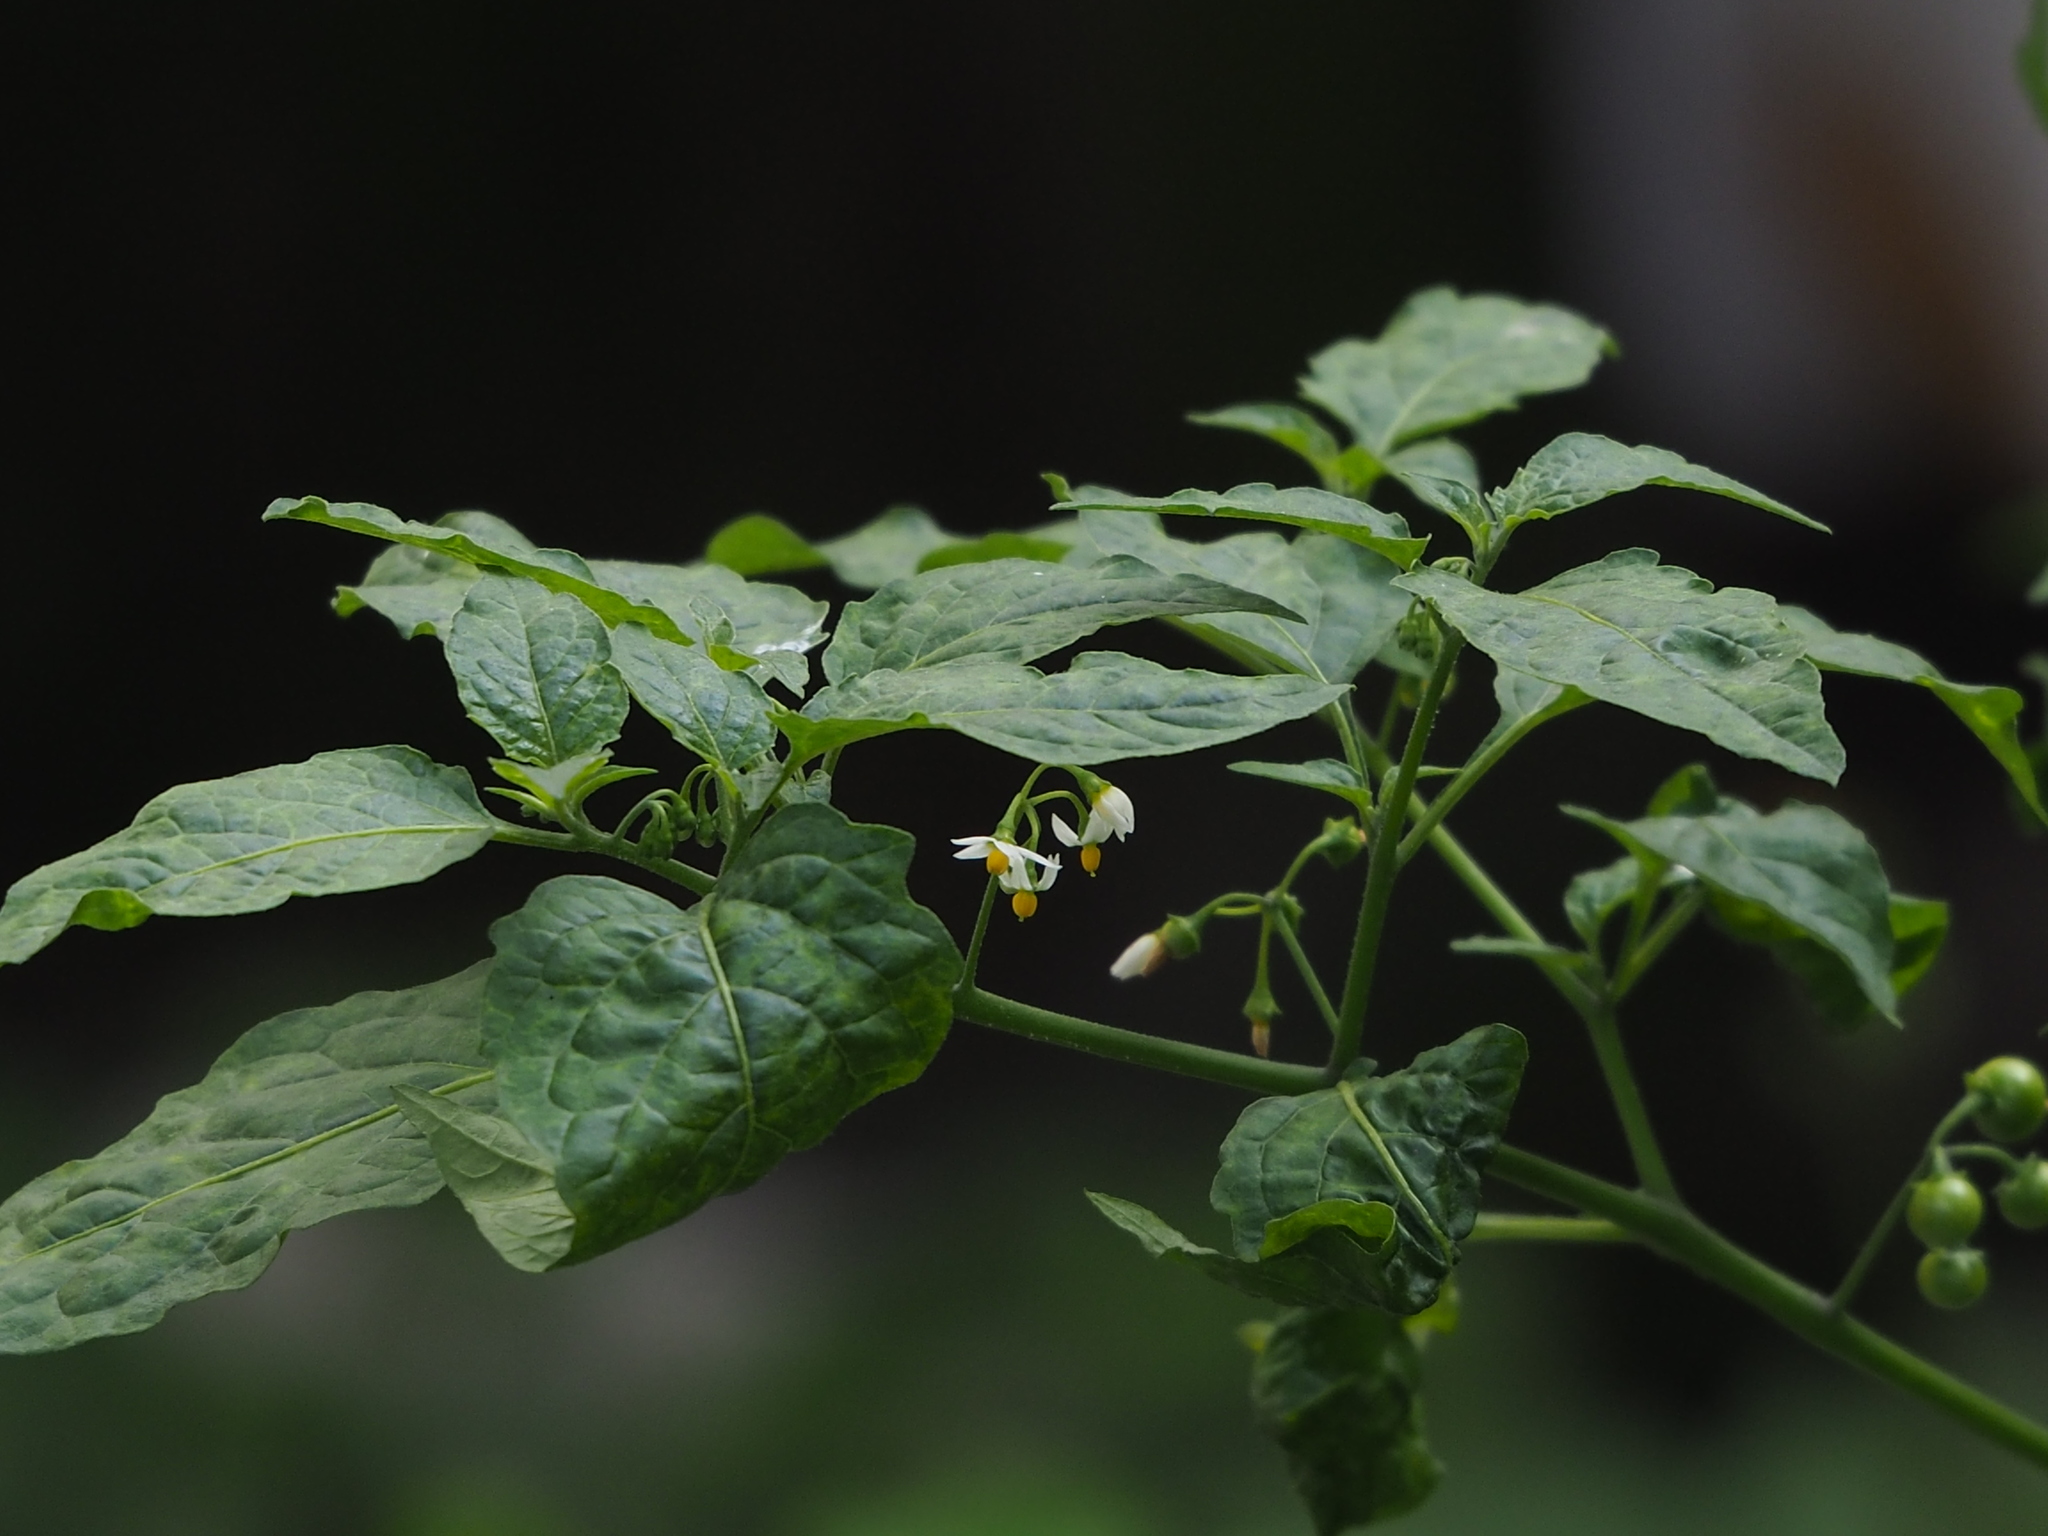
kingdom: Plantae
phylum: Tracheophyta
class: Magnoliopsida
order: Solanales
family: Solanaceae
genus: Solanum
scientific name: Solanum americanum
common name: American black nightshade
